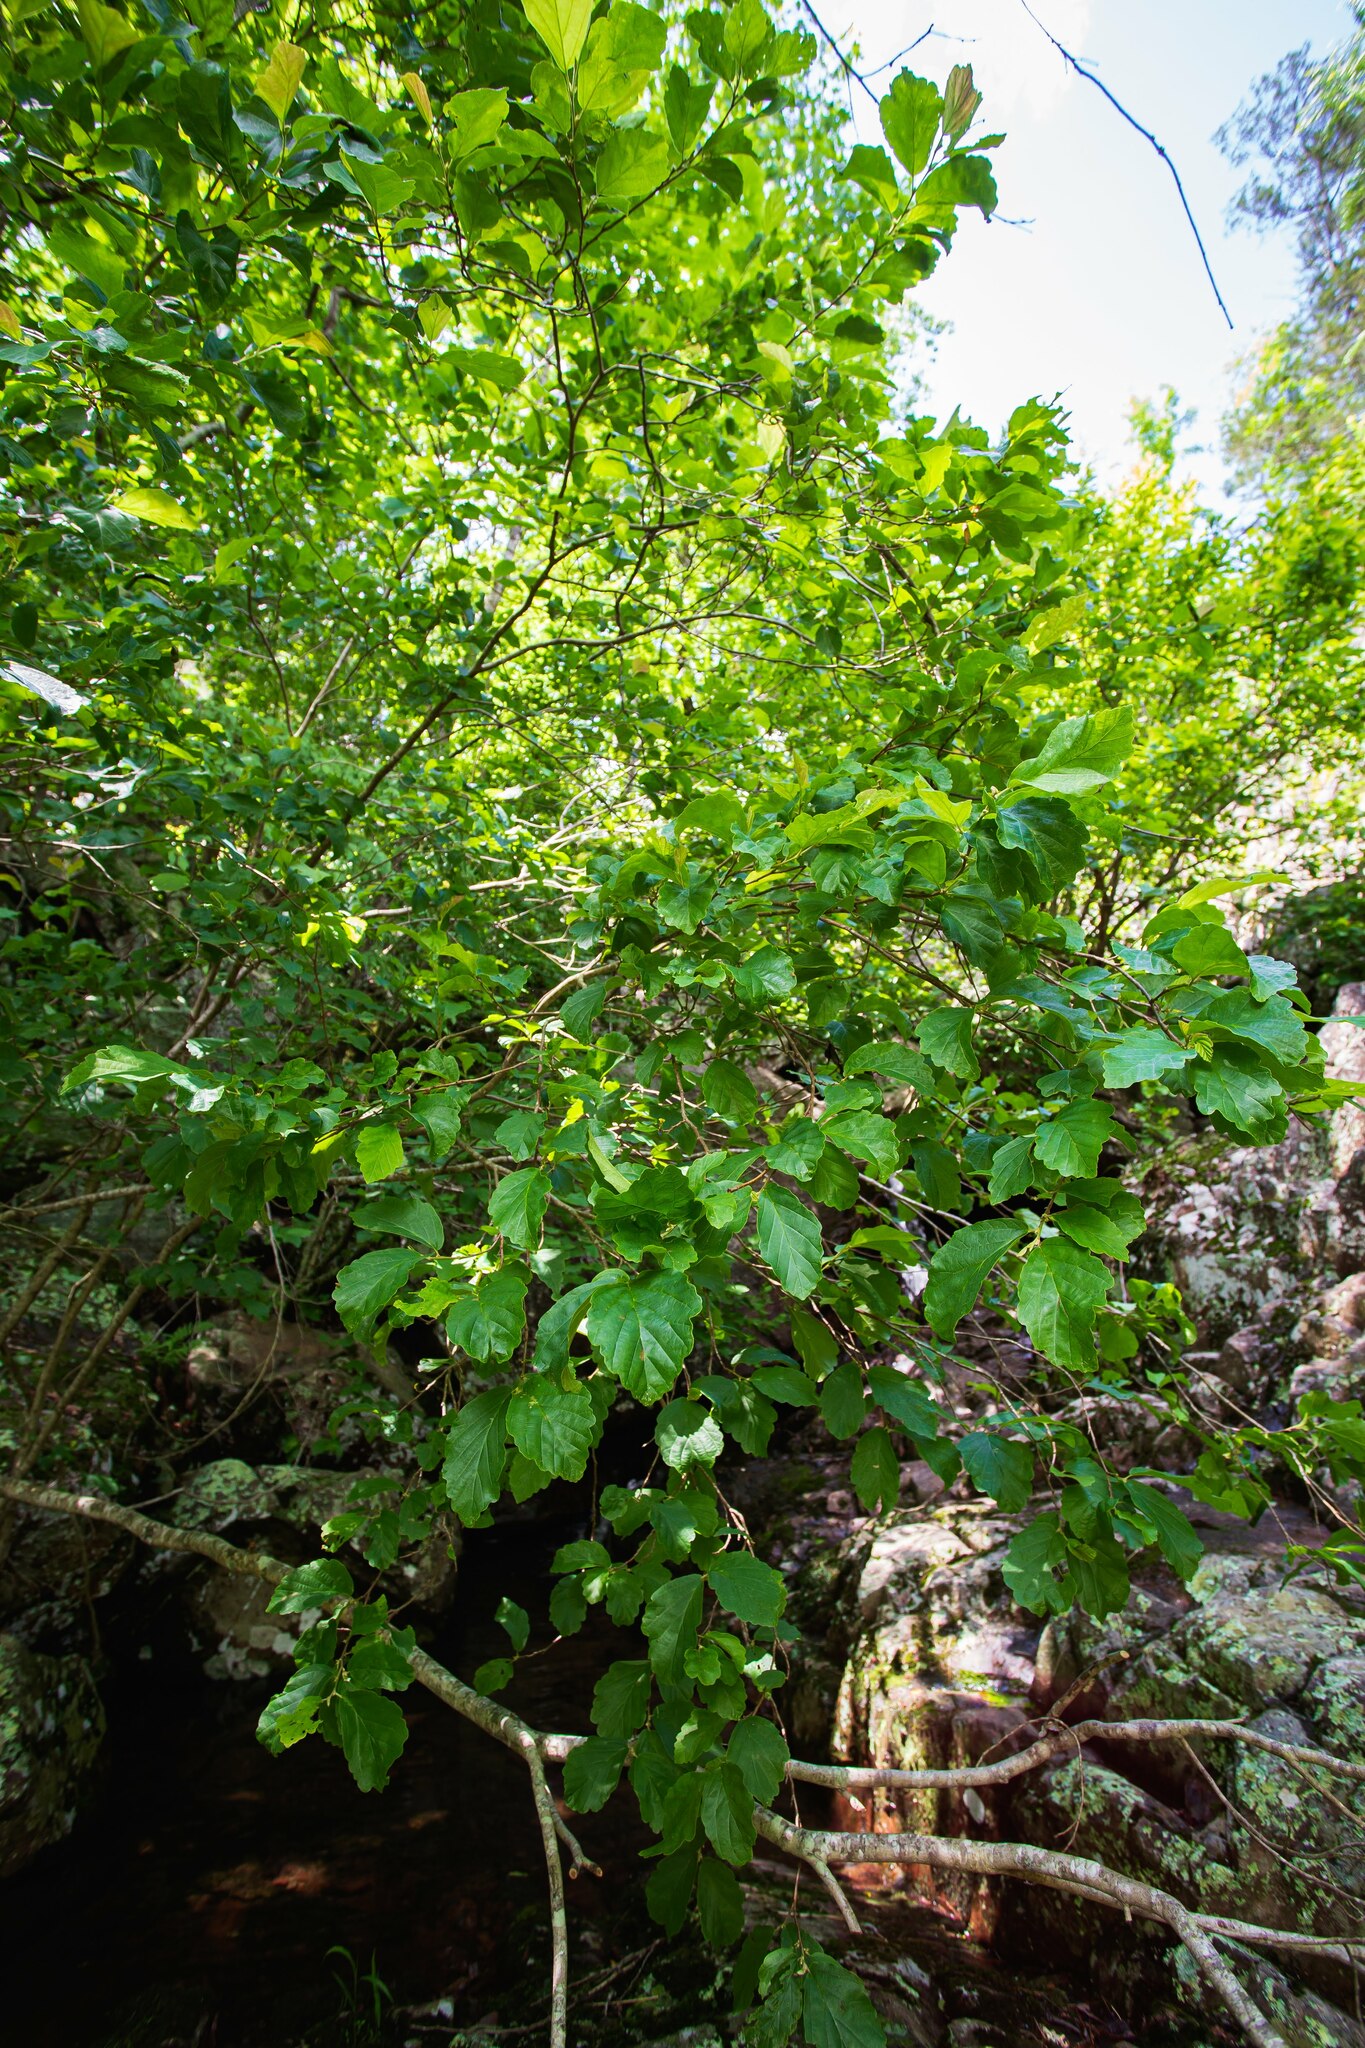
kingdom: Plantae
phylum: Tracheophyta
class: Magnoliopsida
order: Saxifragales
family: Hamamelidaceae
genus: Hamamelis
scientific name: Hamamelis virginiana
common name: Witch-hazel
